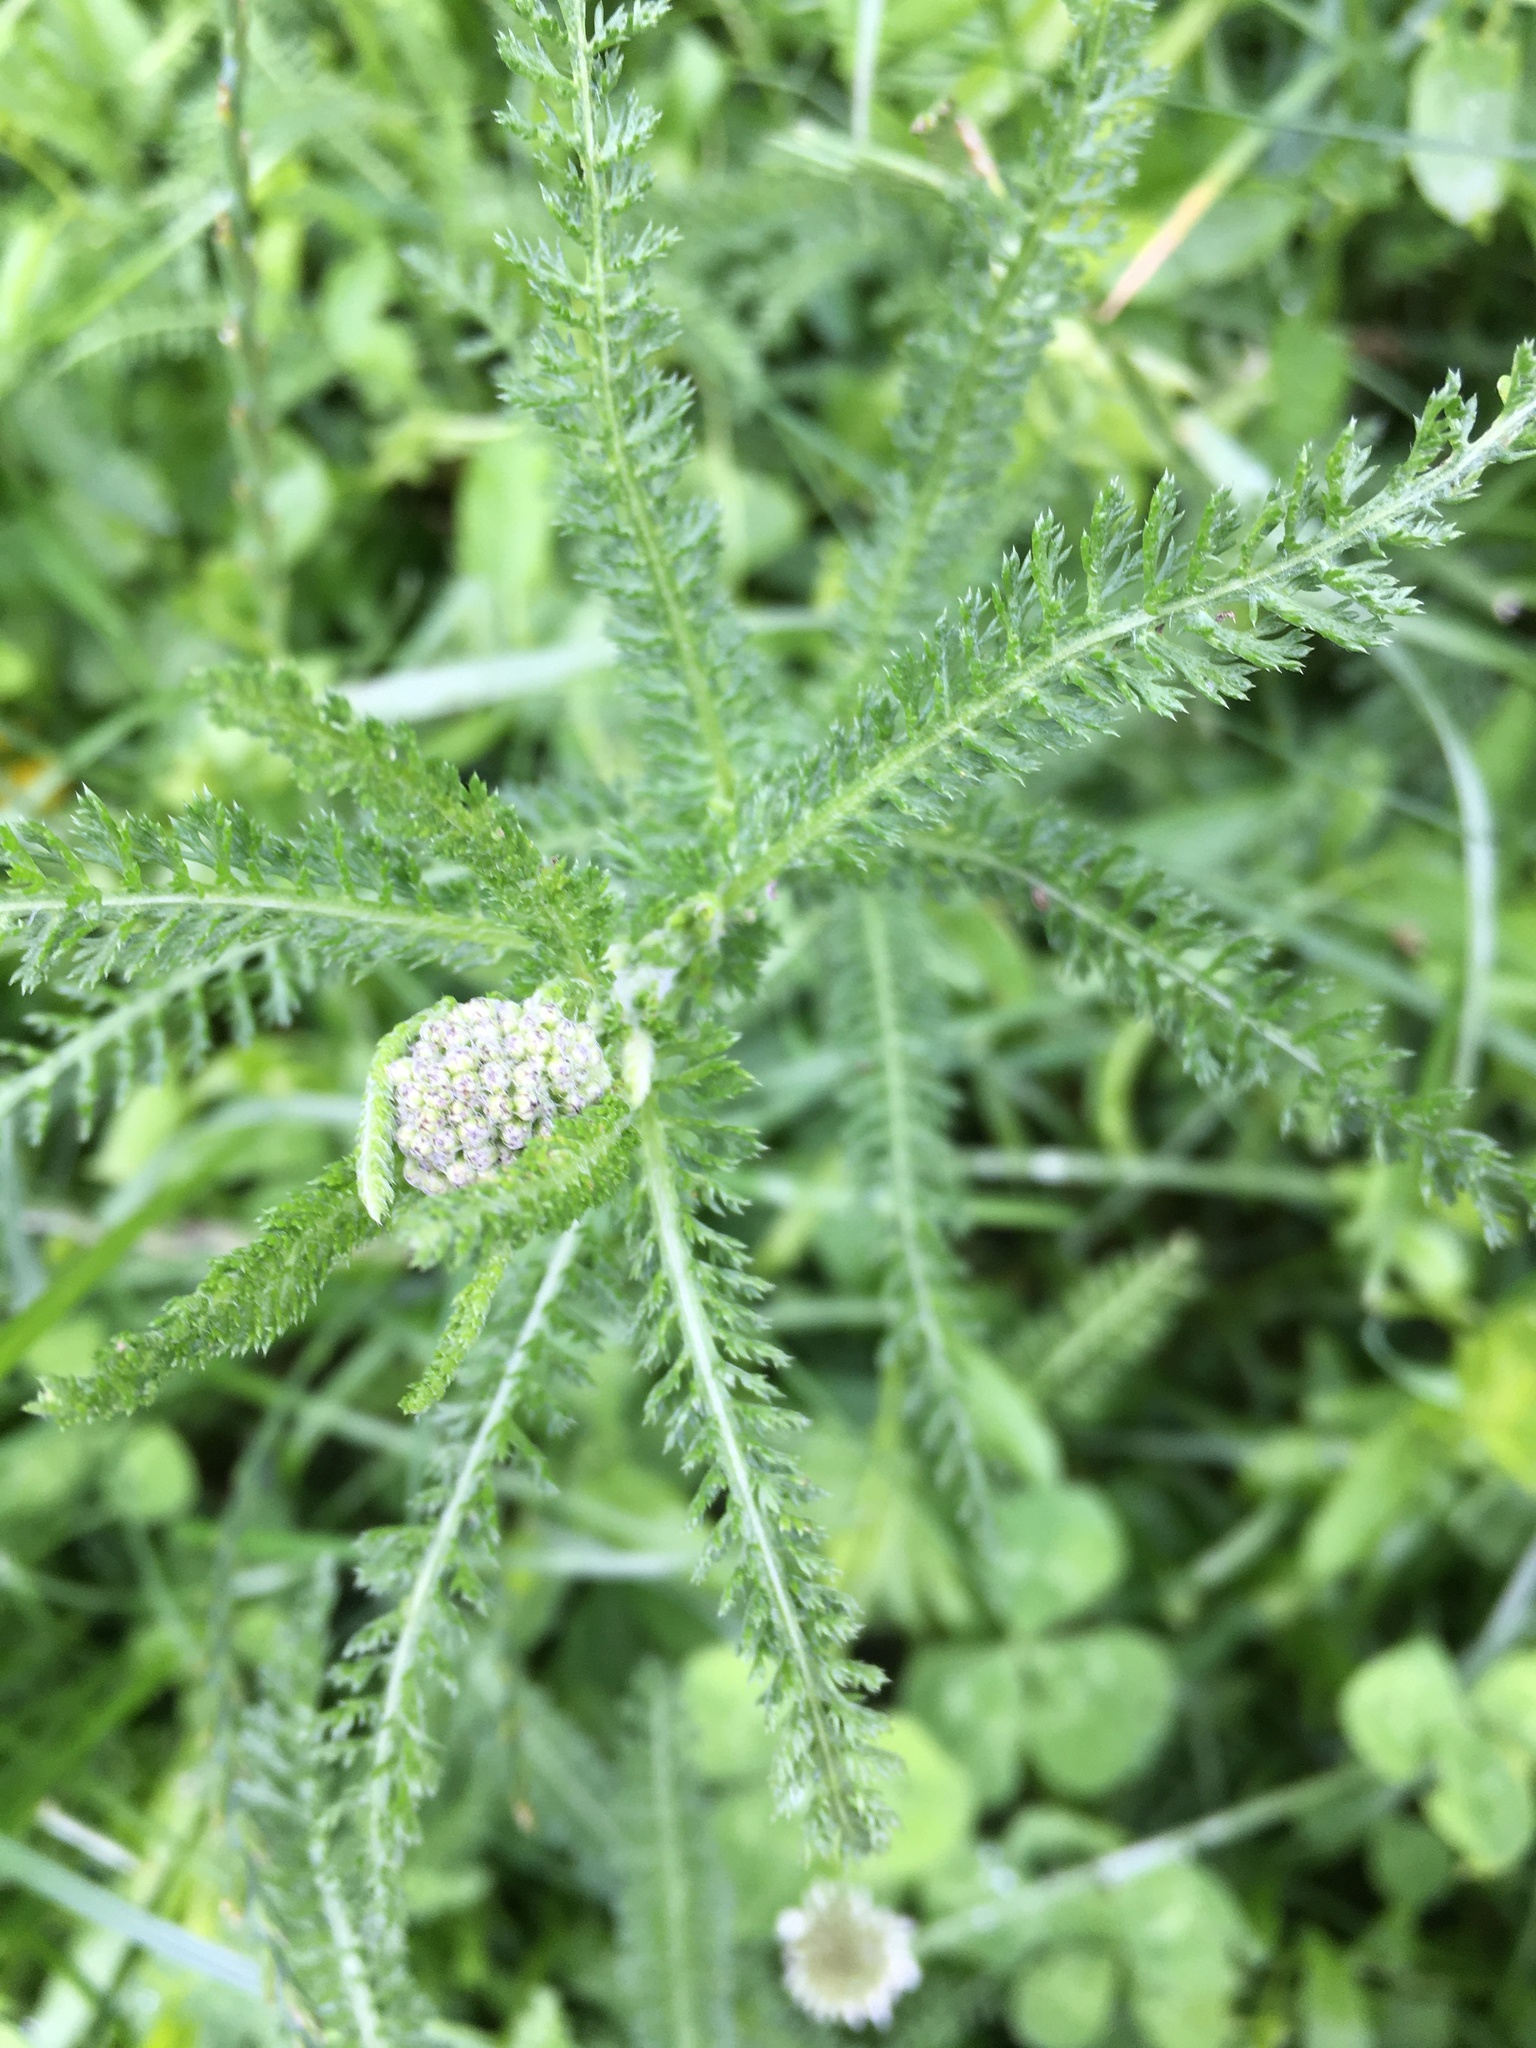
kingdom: Plantae
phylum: Tracheophyta
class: Magnoliopsida
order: Asterales
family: Asteraceae
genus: Achillea
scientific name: Achillea millefolium
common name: Yarrow
